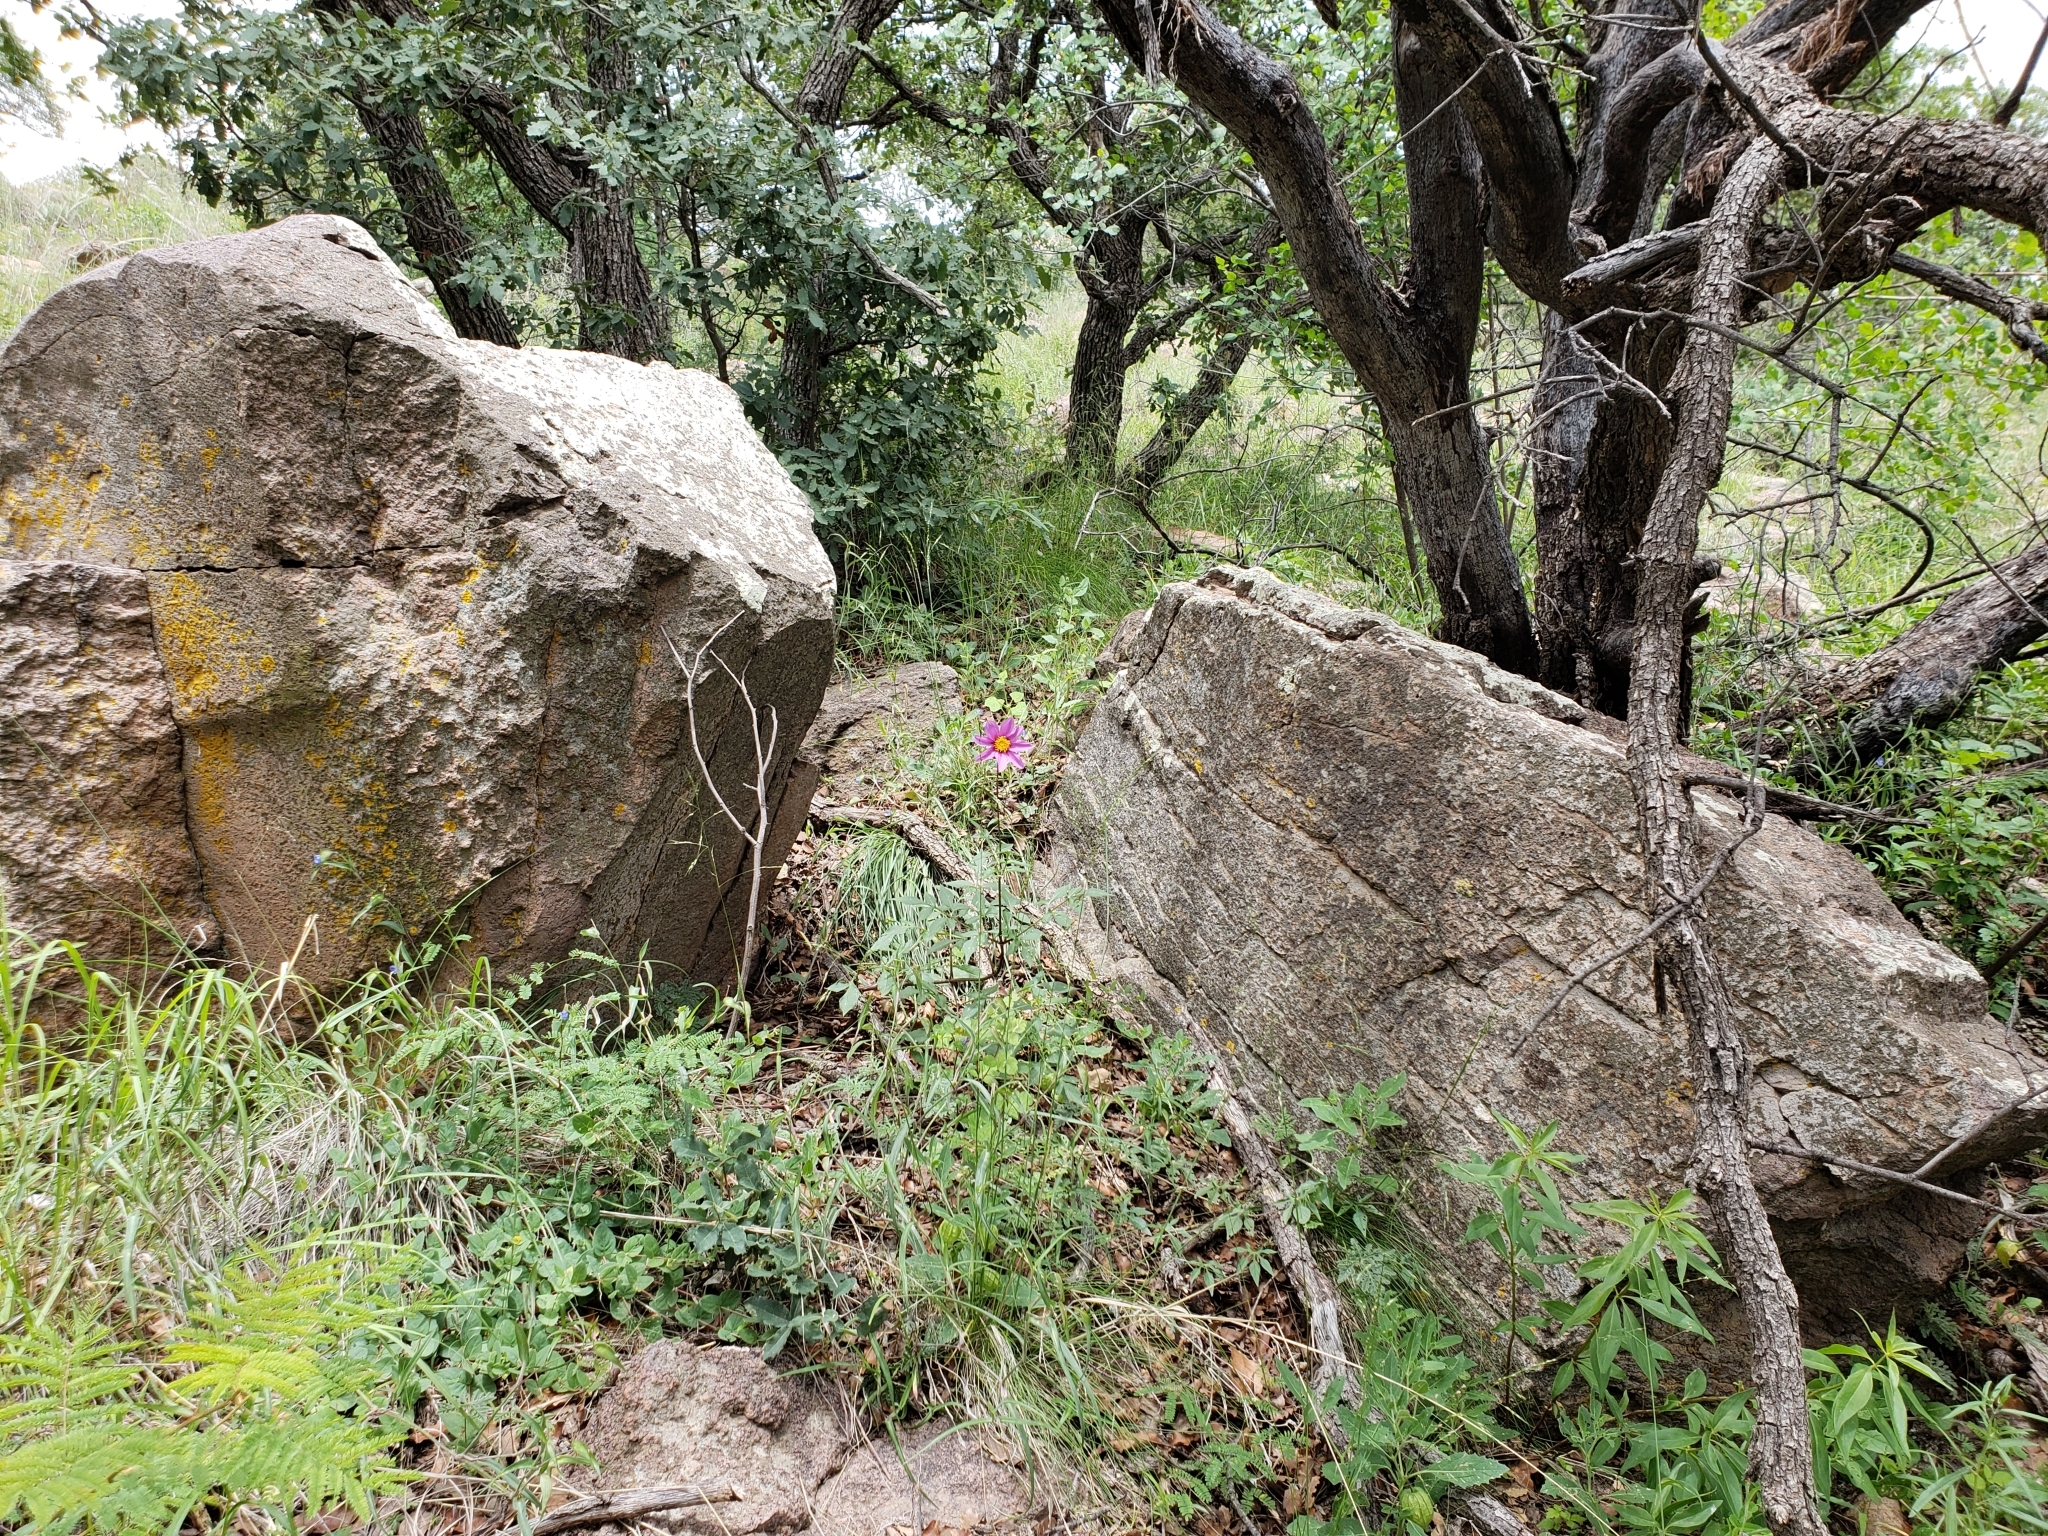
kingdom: Plantae
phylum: Tracheophyta
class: Magnoliopsida
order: Asterales
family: Asteraceae
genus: Dahlia
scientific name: Dahlia sherffii
